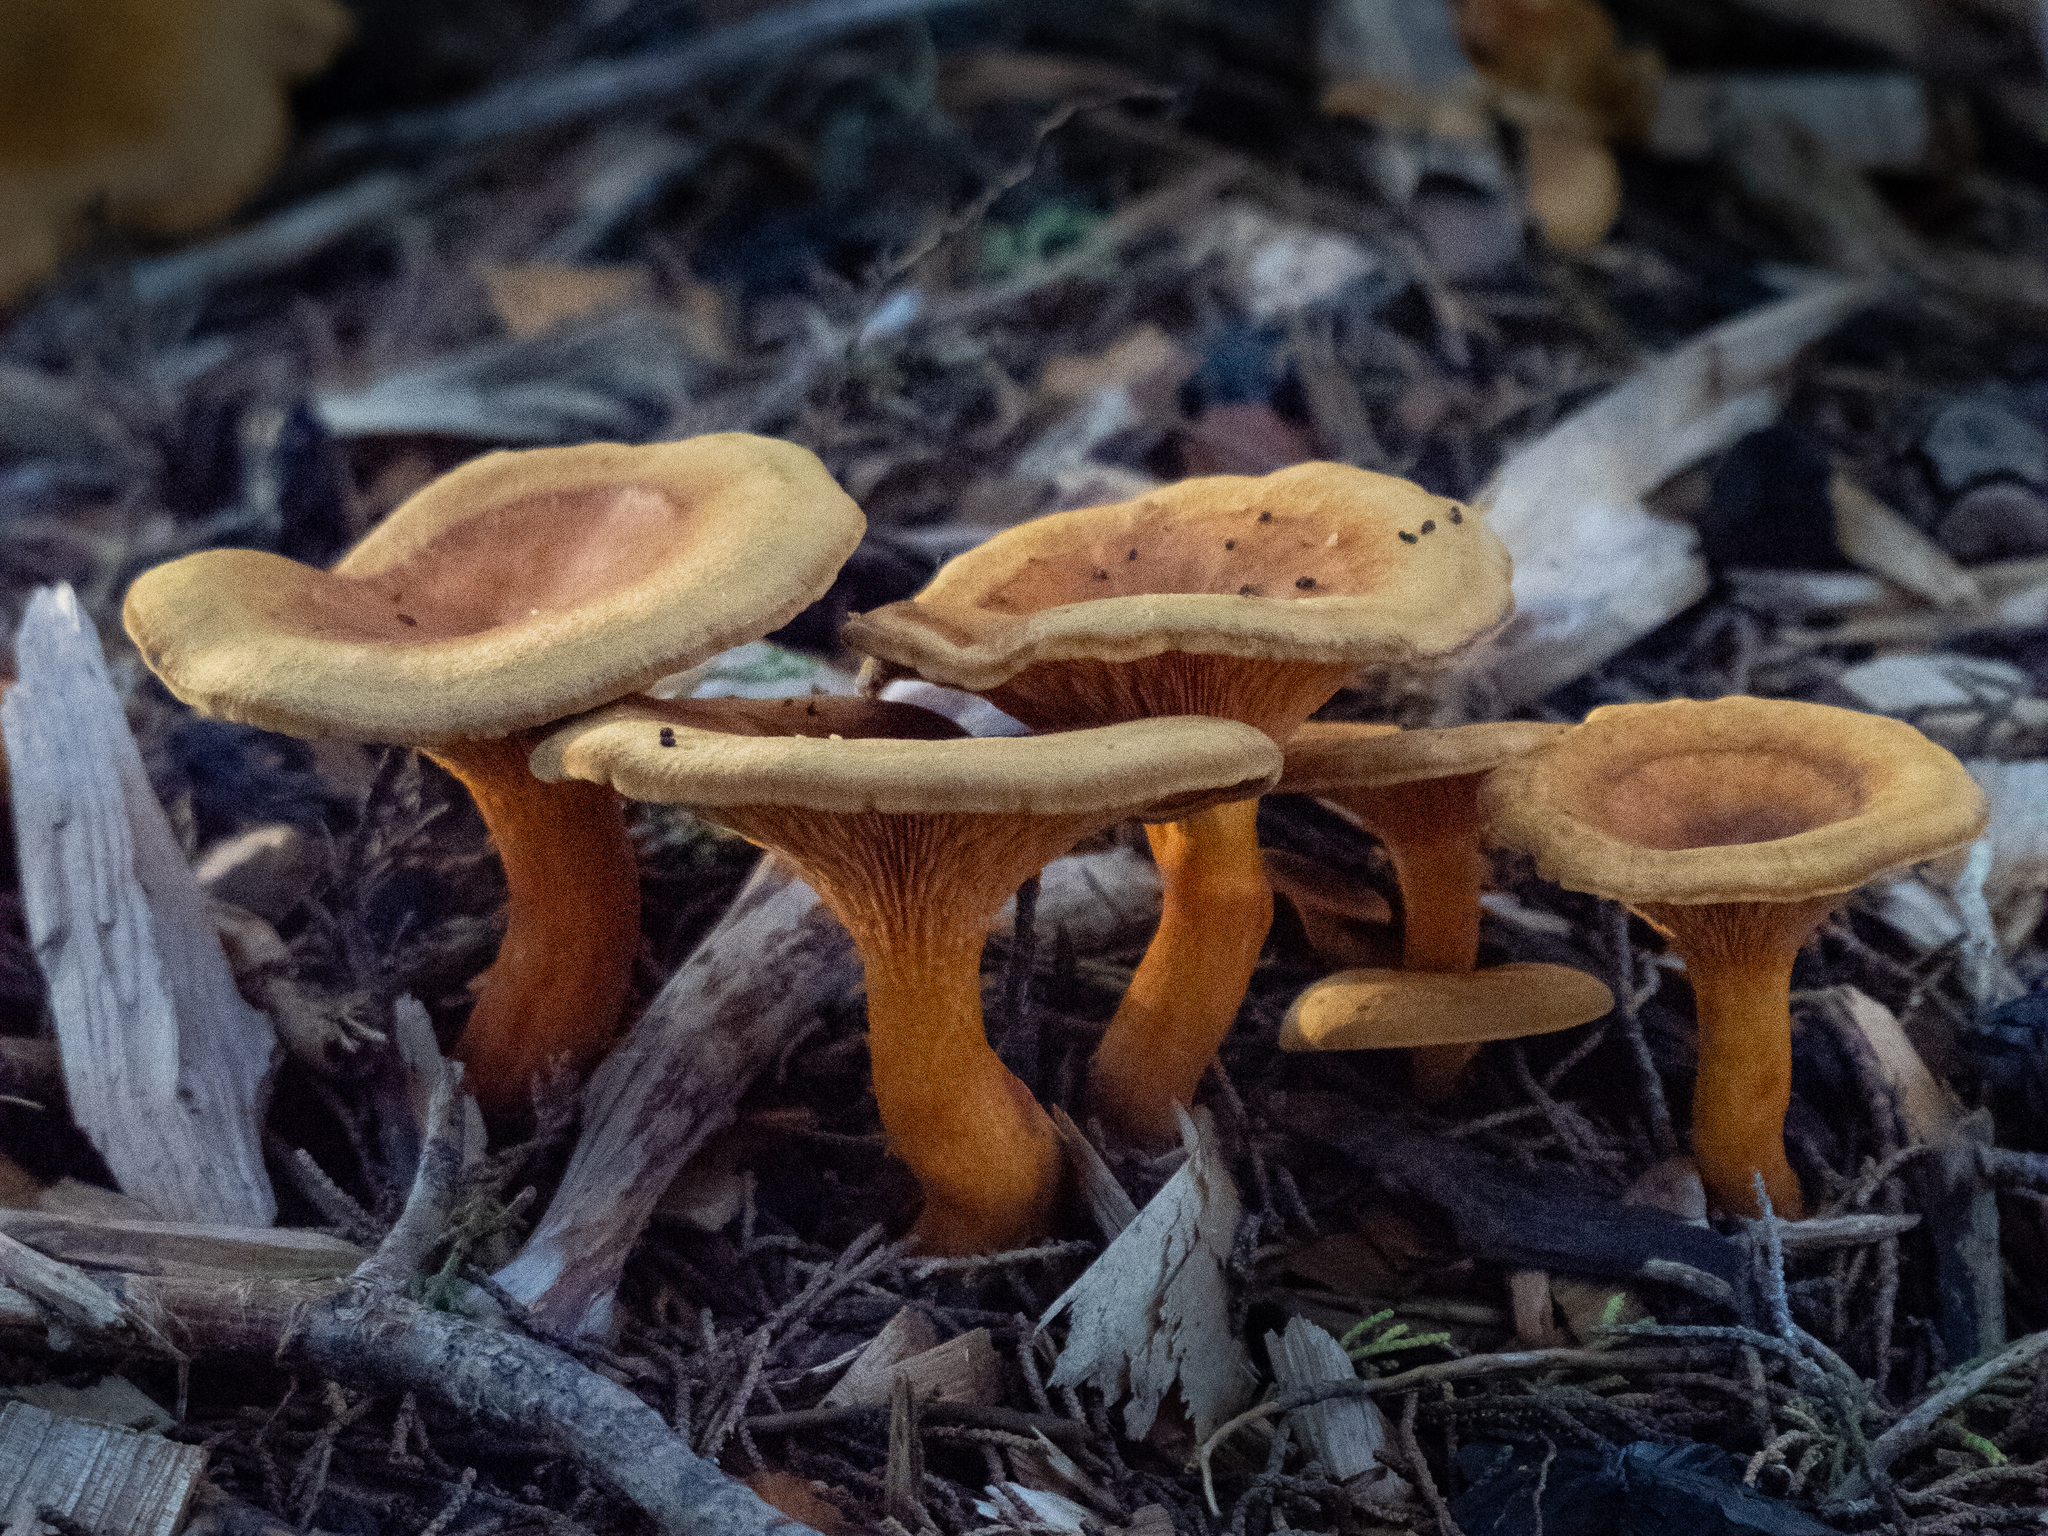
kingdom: Fungi
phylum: Basidiomycota
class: Agaricomycetes
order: Boletales
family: Hygrophoropsidaceae
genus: Hygrophoropsis
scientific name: Hygrophoropsis aurantiaca
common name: False chanterelle
